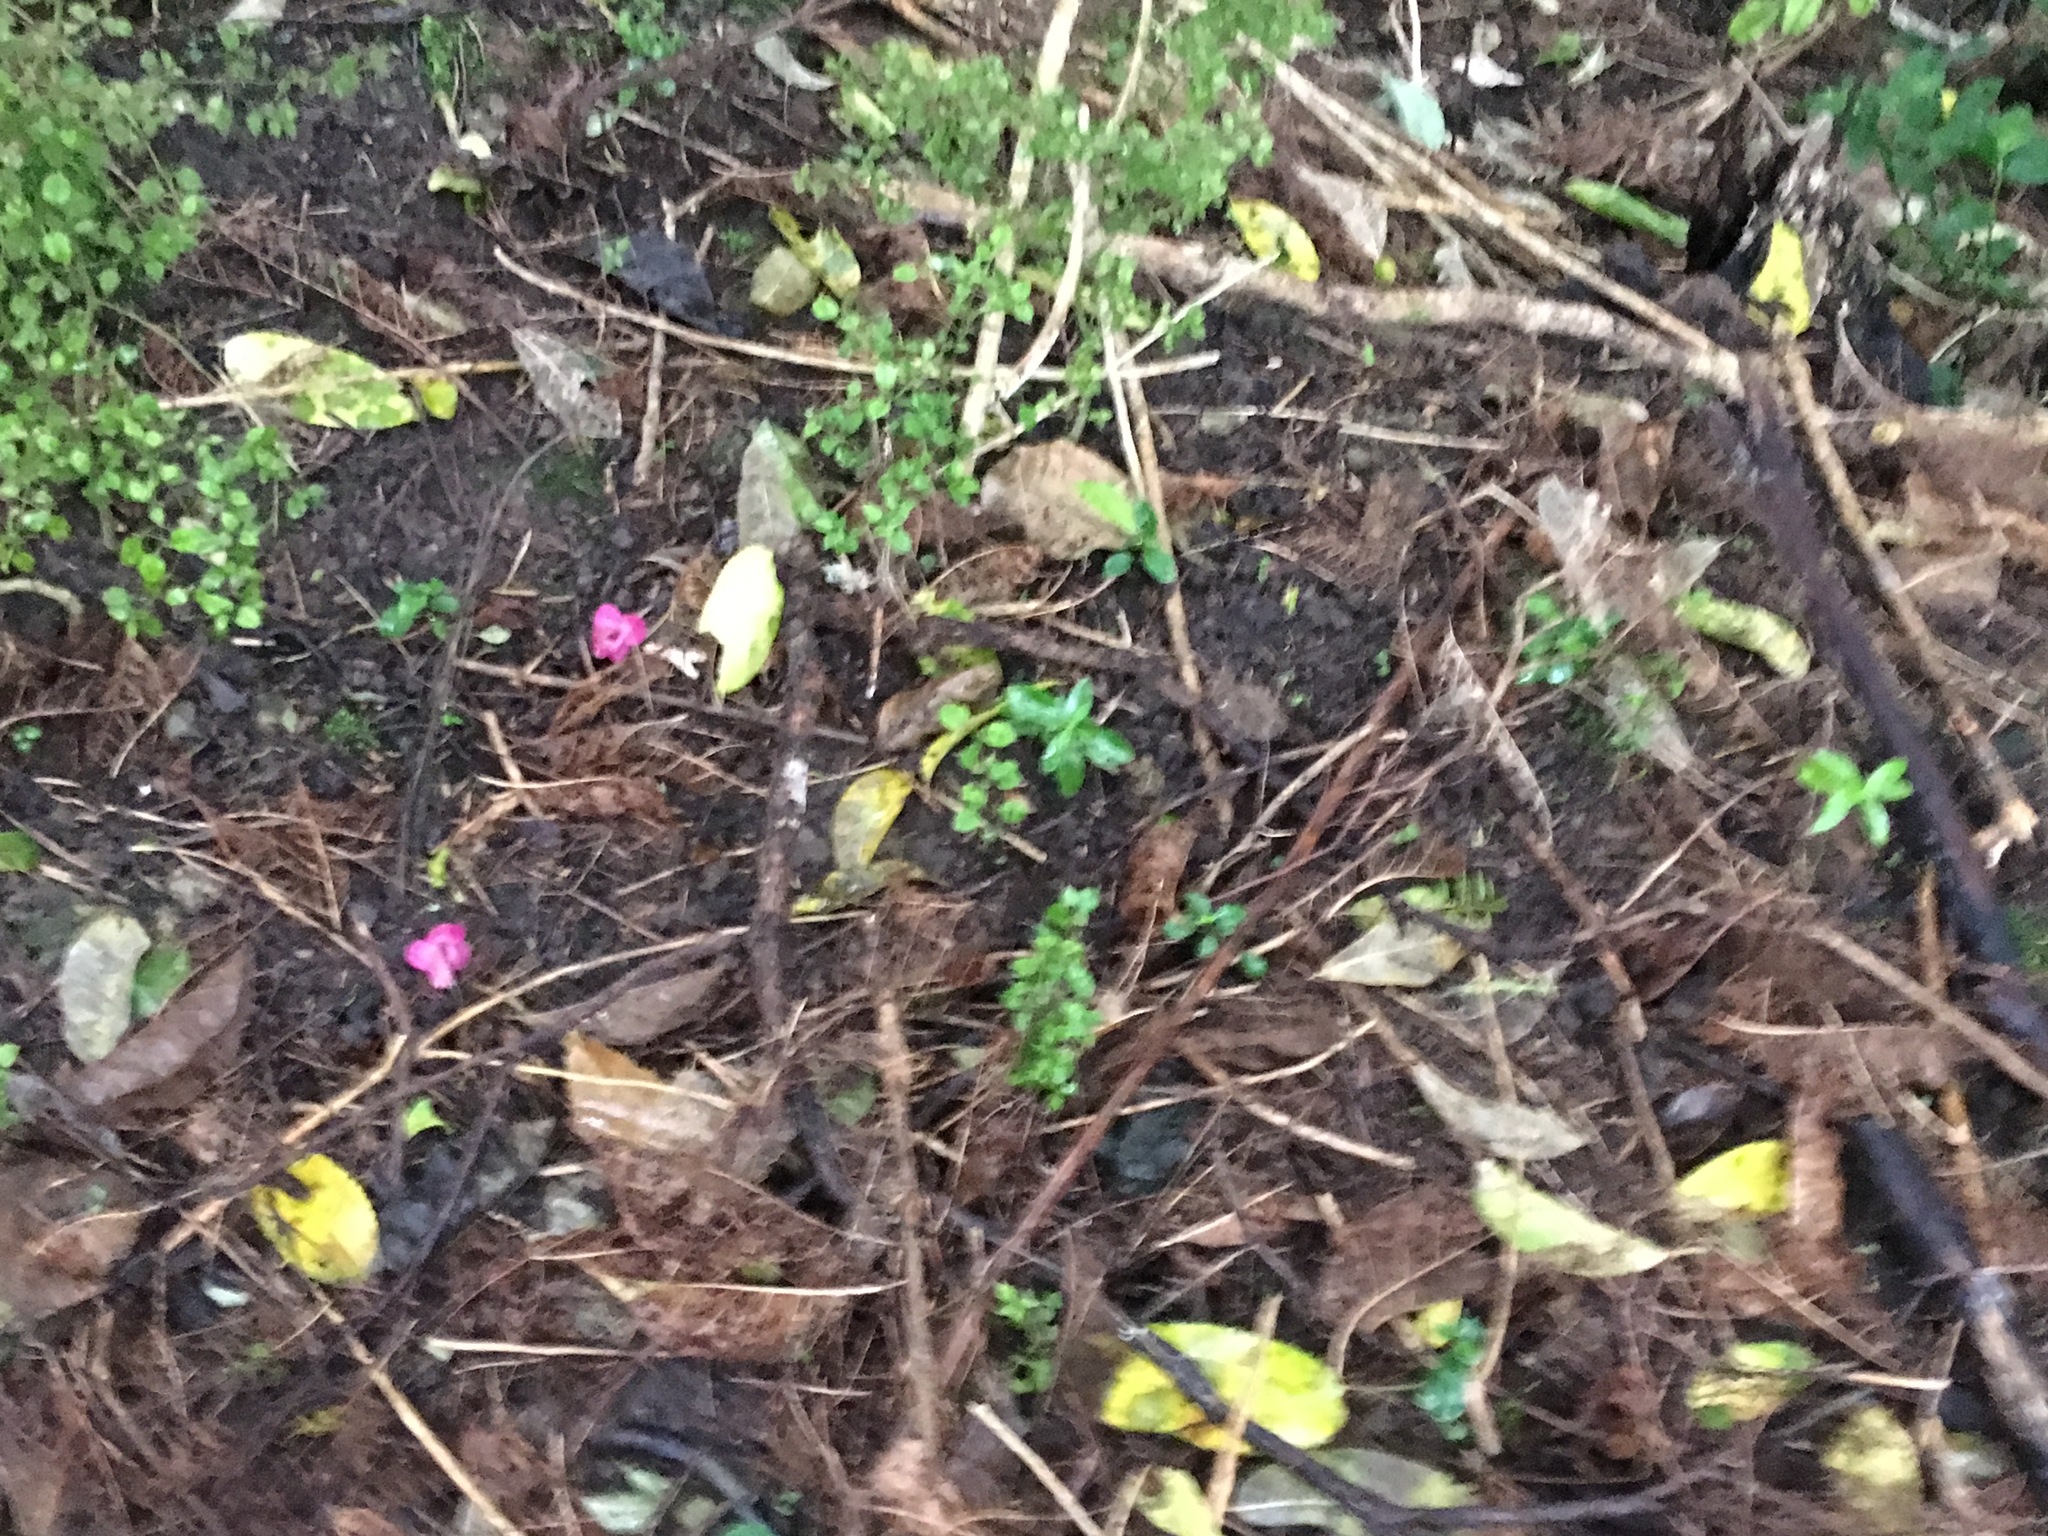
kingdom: Plantae
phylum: Tracheophyta
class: Magnoliopsida
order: Gentianales
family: Rubiaceae
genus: Coprosma
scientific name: Coprosma areolata
